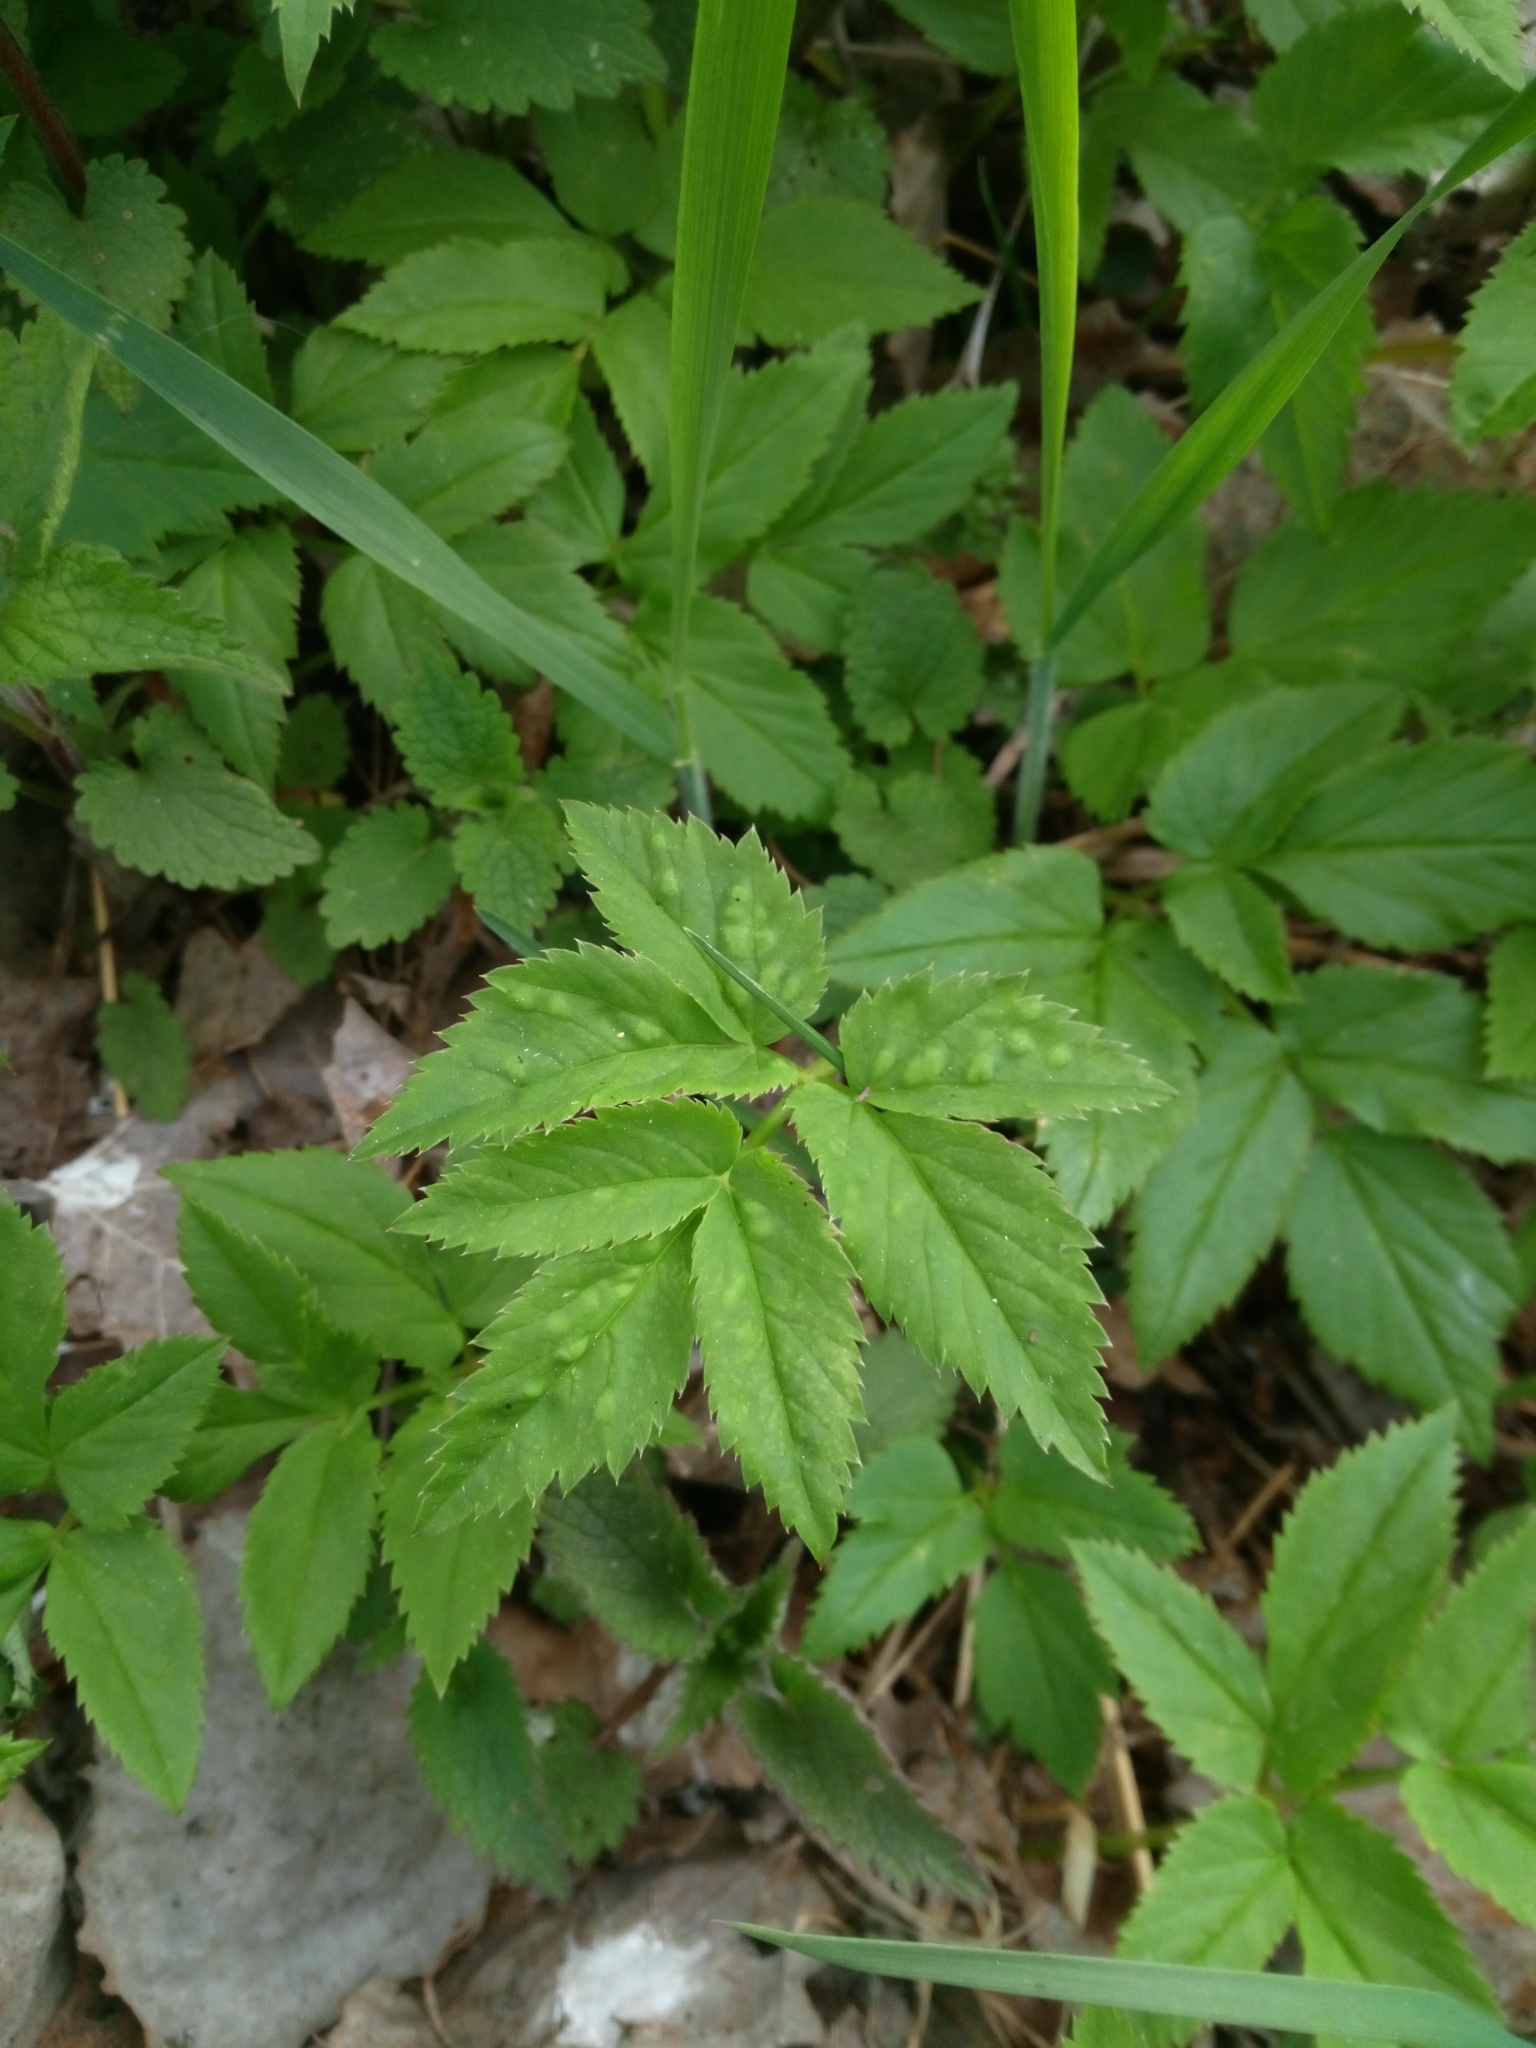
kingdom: Animalia
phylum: Arthropoda
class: Insecta
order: Hemiptera
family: Triozidae
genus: Trioza
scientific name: Trioza flavipennis
